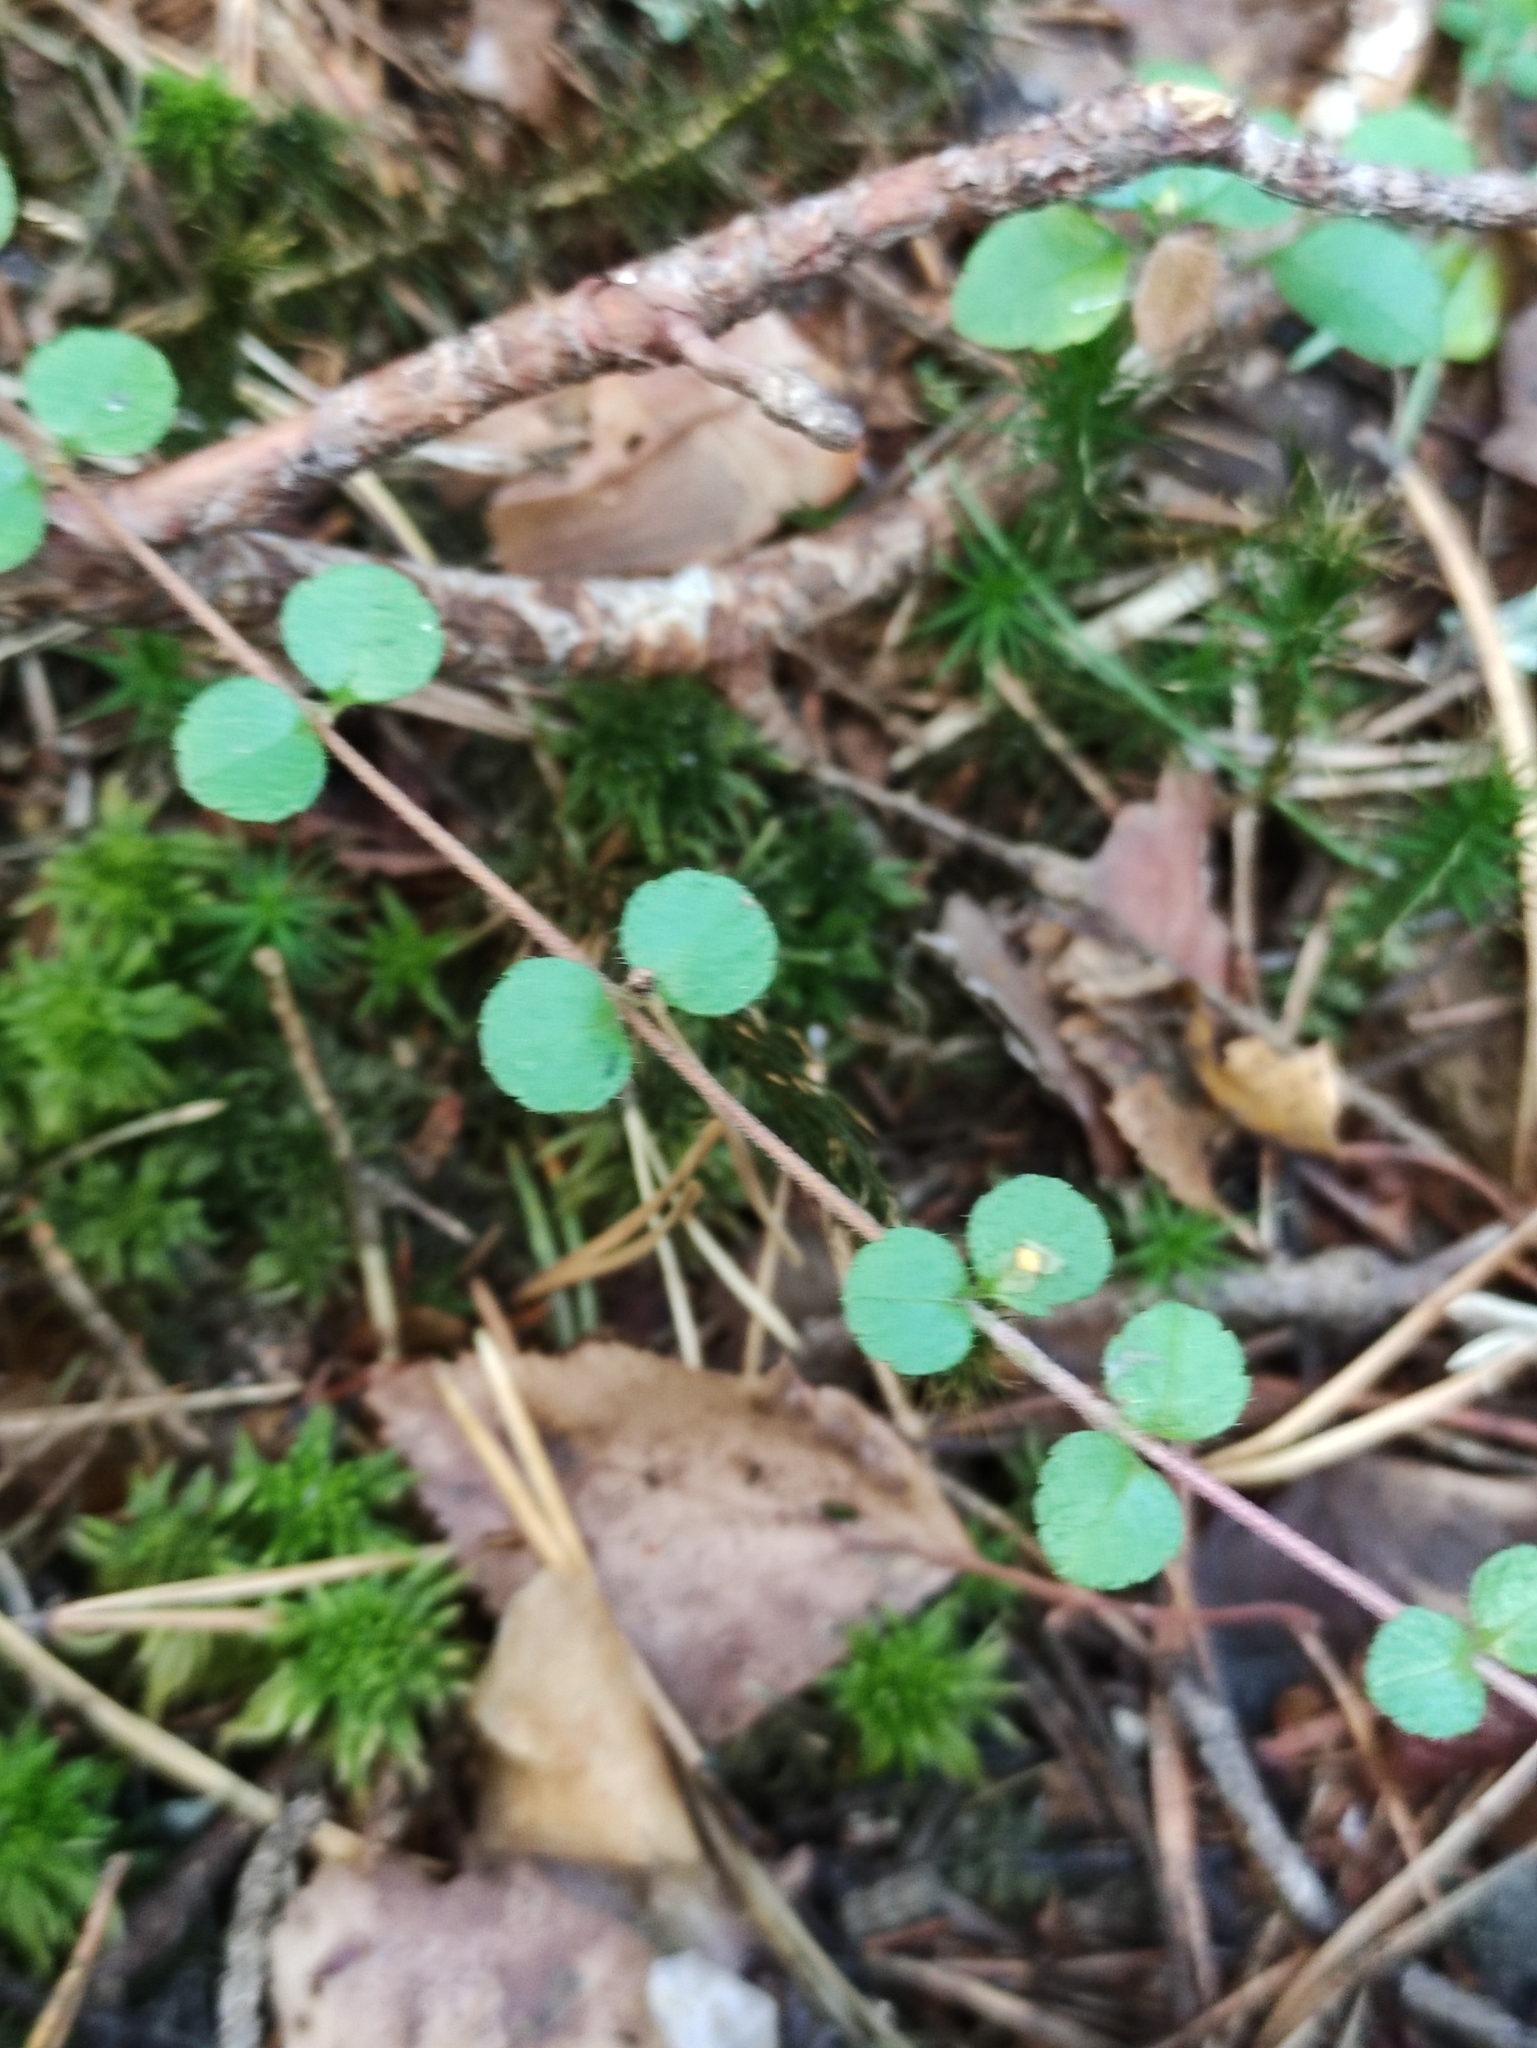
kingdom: Plantae
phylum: Tracheophyta
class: Magnoliopsida
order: Dipsacales
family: Caprifoliaceae
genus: Linnaea
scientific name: Linnaea borealis
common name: Twinflower
